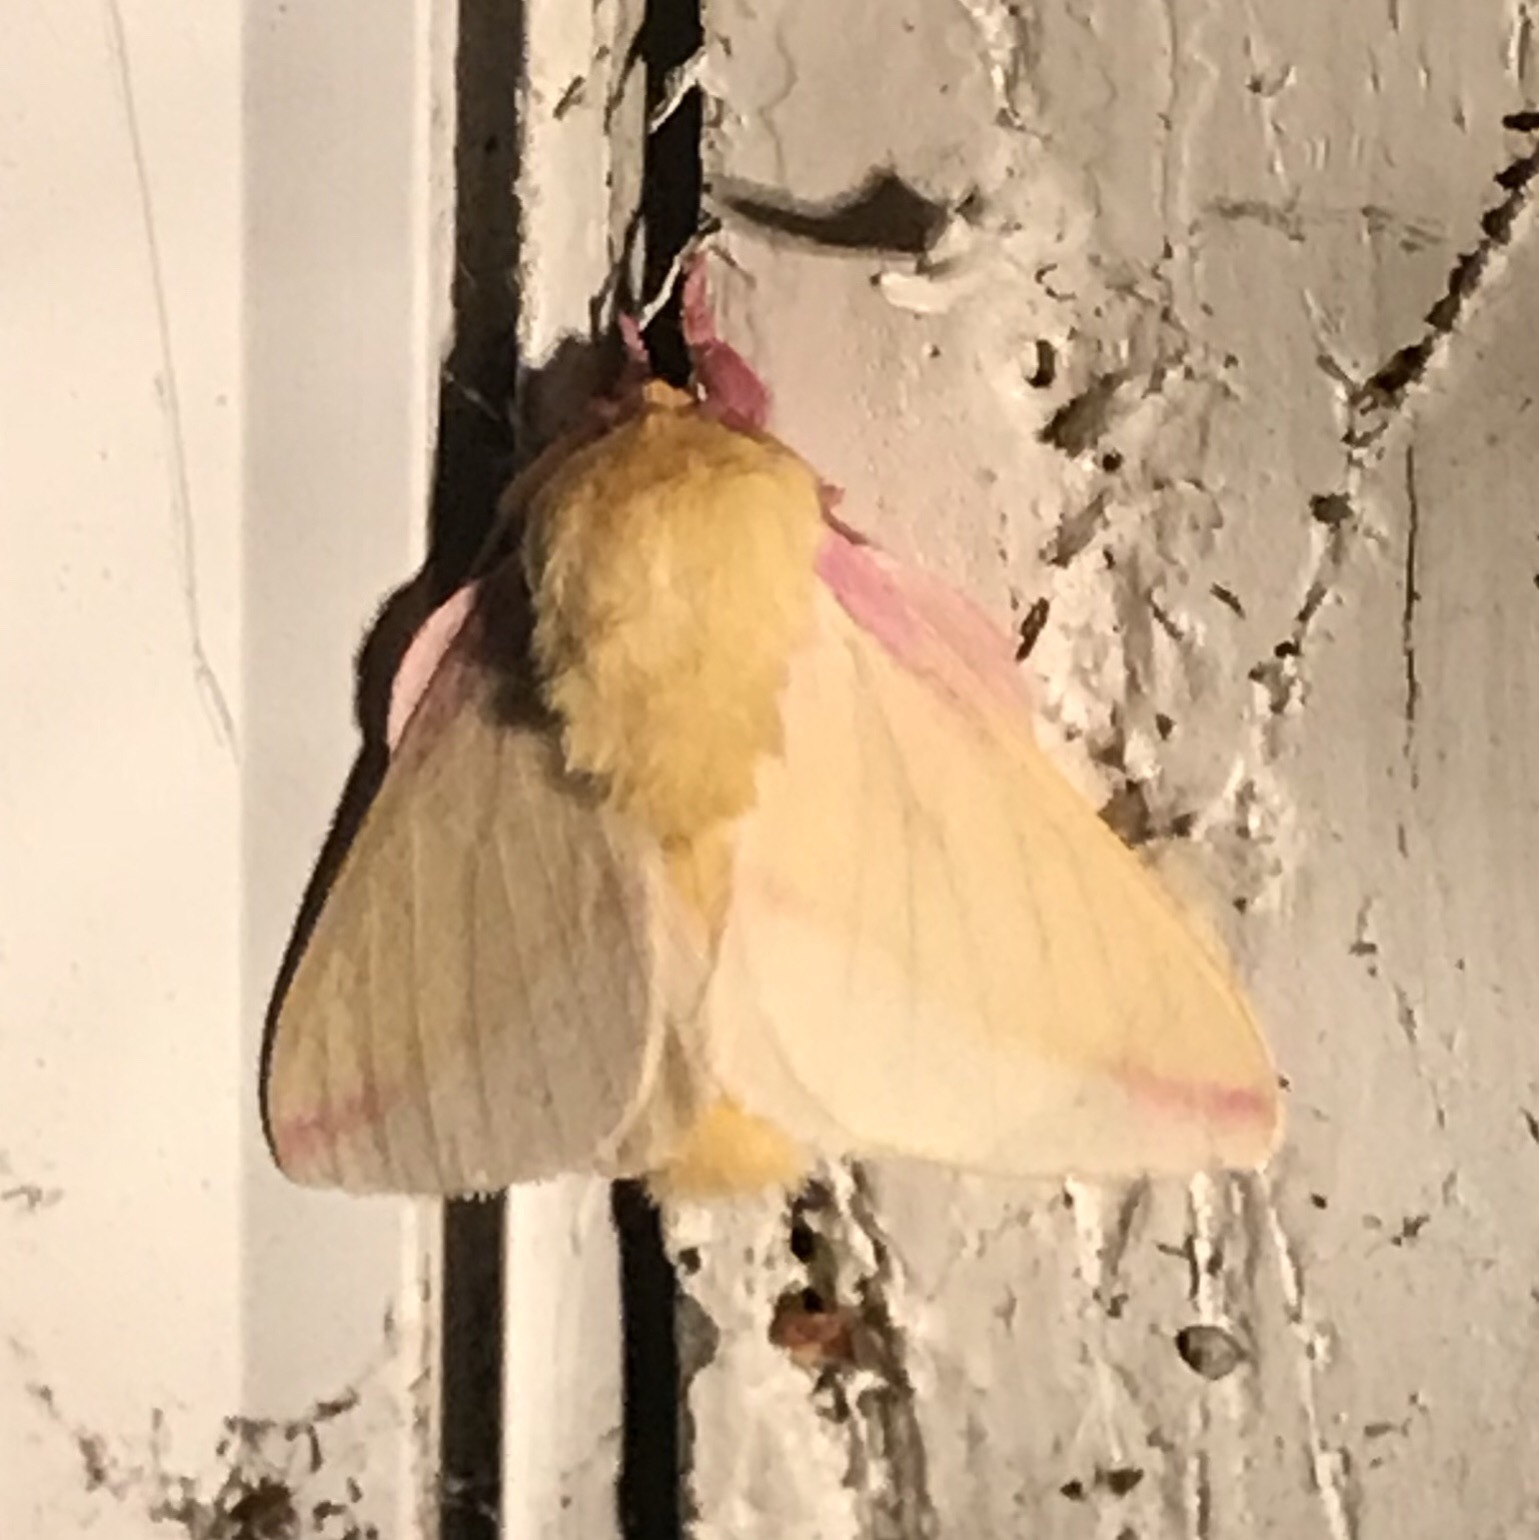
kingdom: Animalia
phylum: Arthropoda
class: Insecta
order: Lepidoptera
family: Saturniidae
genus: Dryocampa
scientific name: Dryocampa rubicunda
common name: Rosy maple moth
